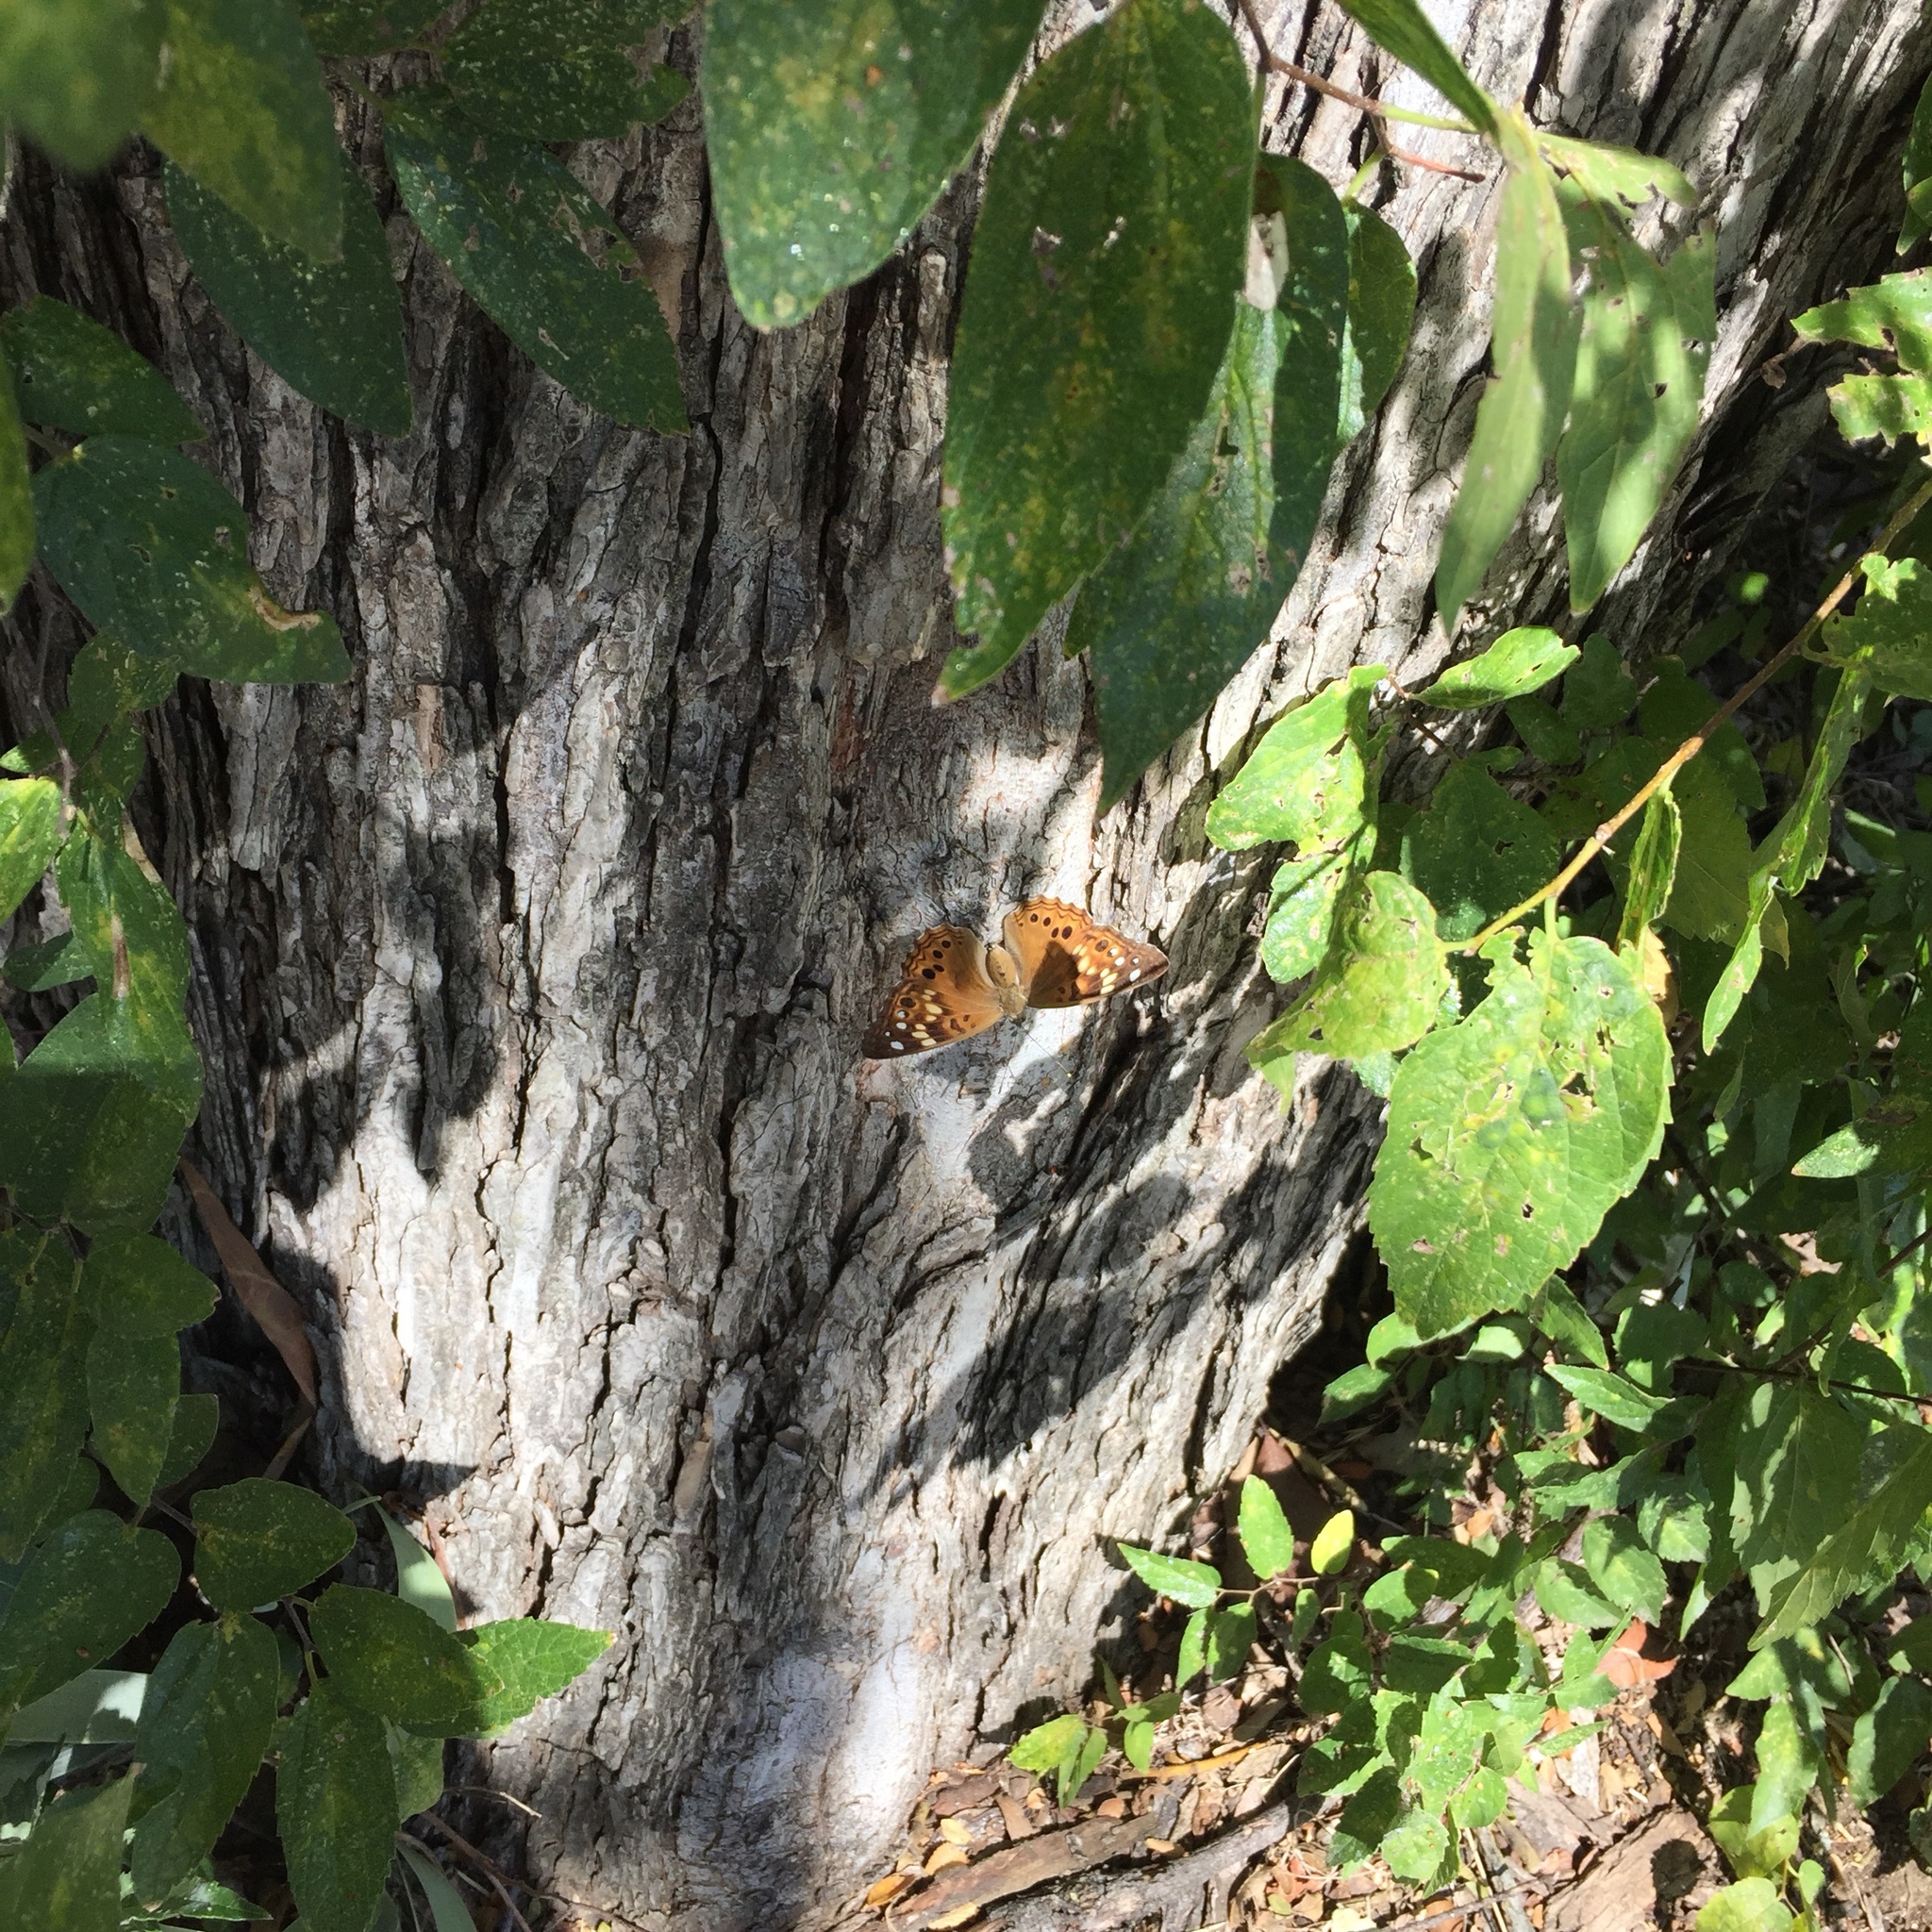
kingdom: Animalia
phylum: Arthropoda
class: Insecta
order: Lepidoptera
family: Nymphalidae
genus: Asterocampa
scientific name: Asterocampa celtis
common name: Hackberry emperor
